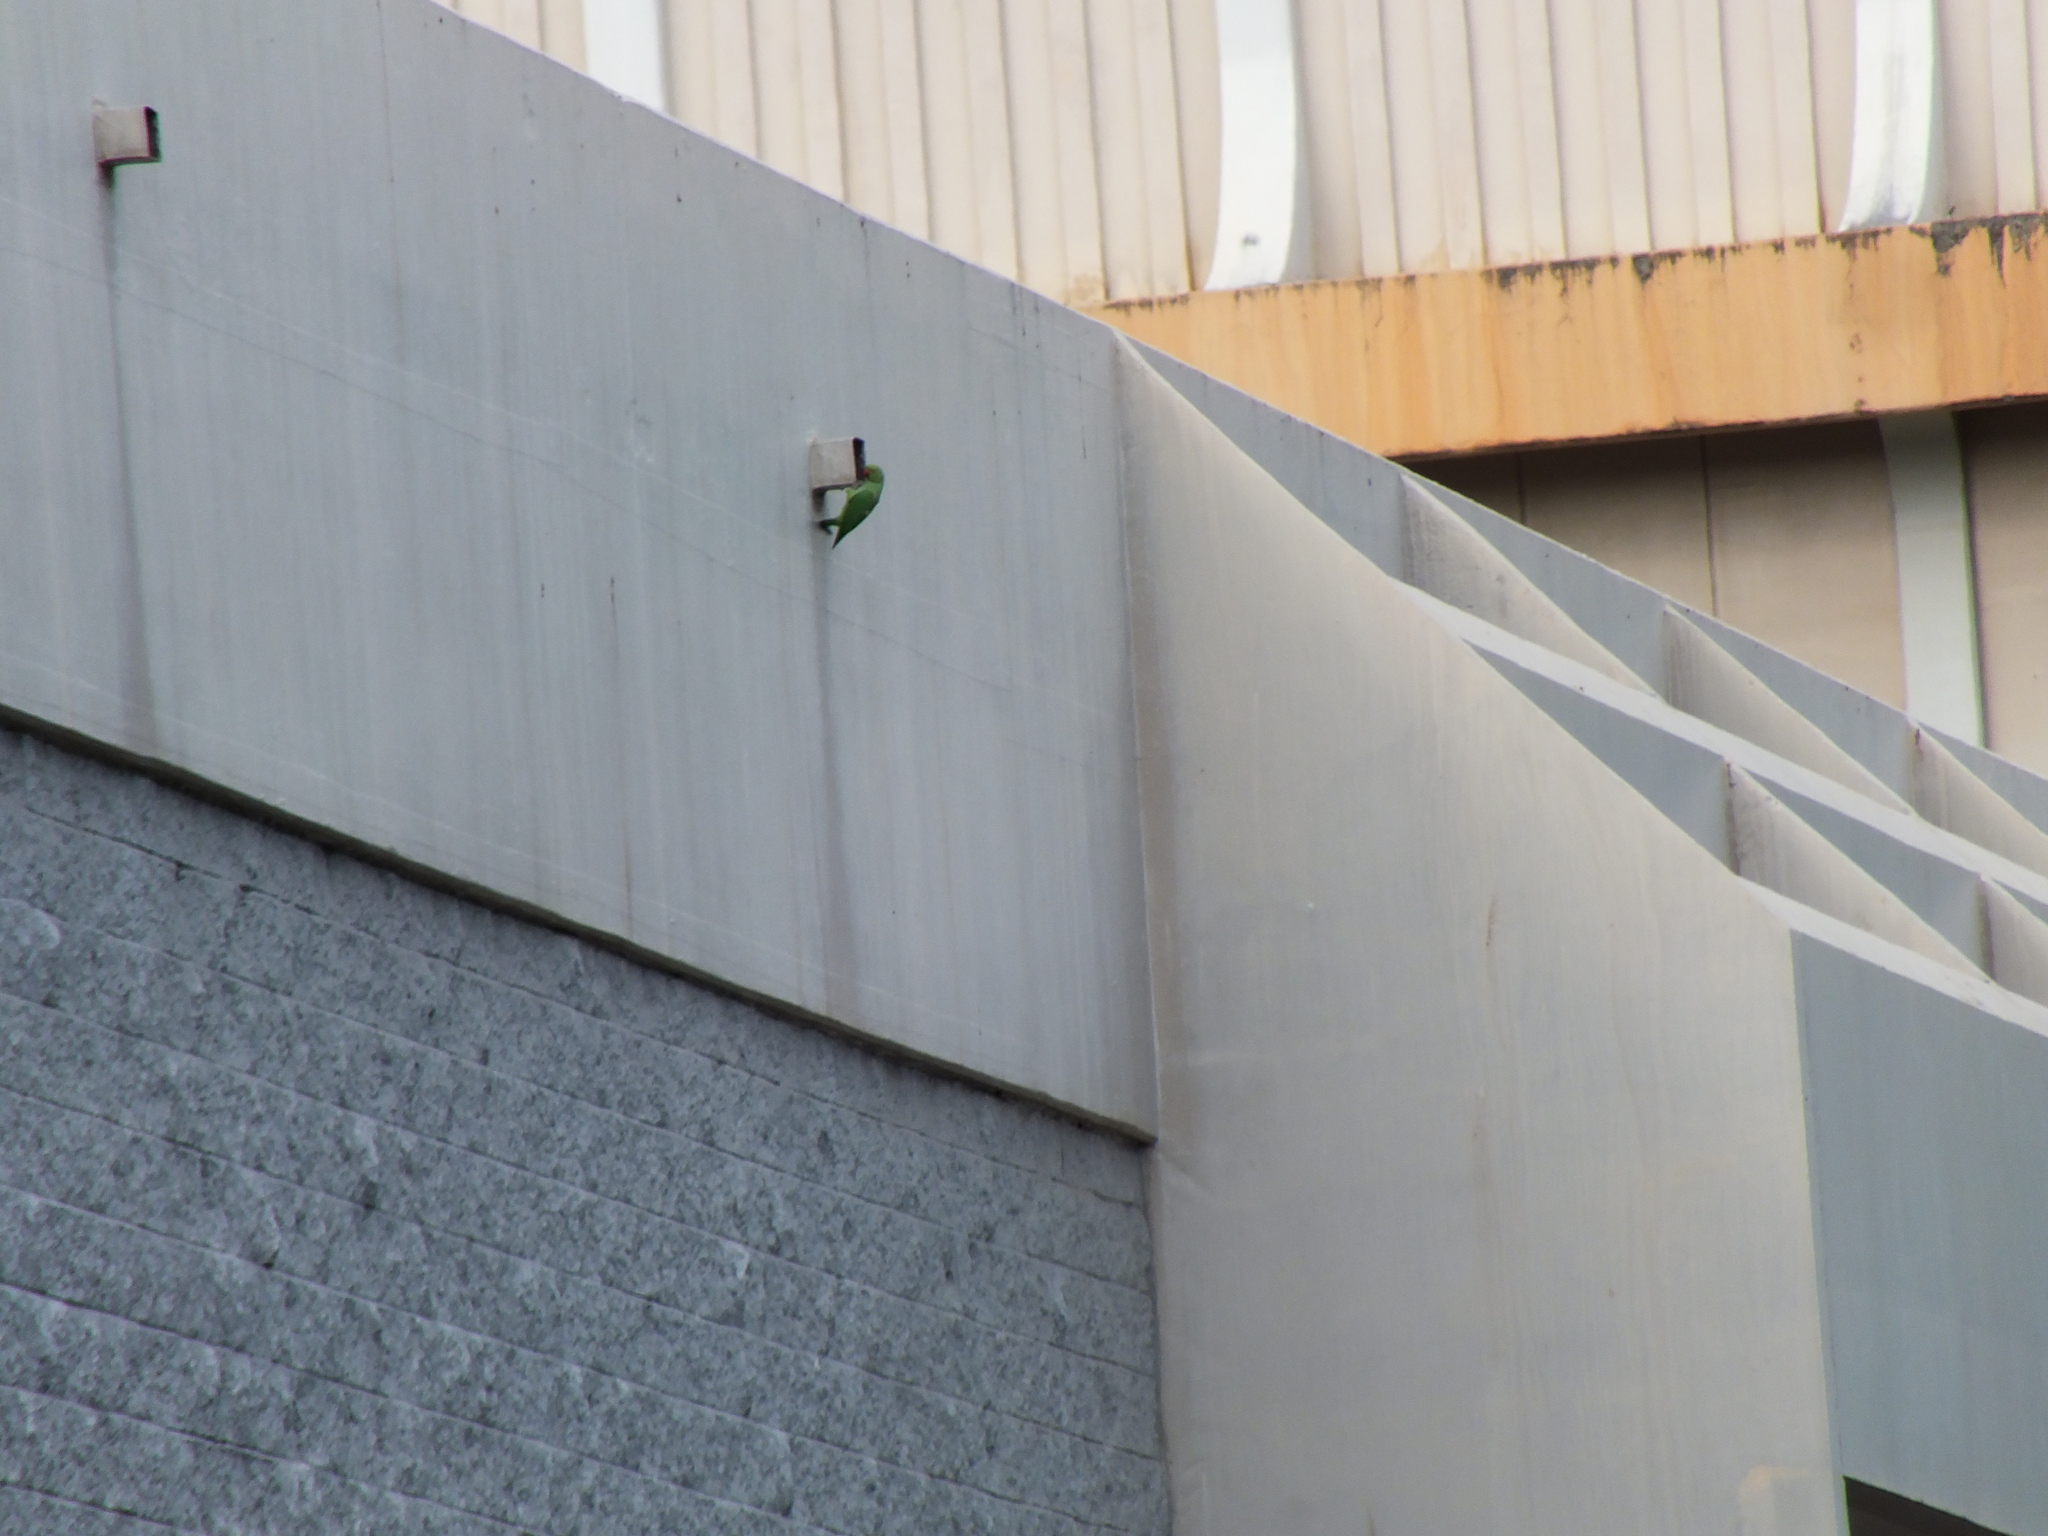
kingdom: Animalia
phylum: Chordata
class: Aves
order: Psittaciformes
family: Psittacidae
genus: Psittacula
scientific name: Psittacula krameri
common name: Rose-ringed parakeet
